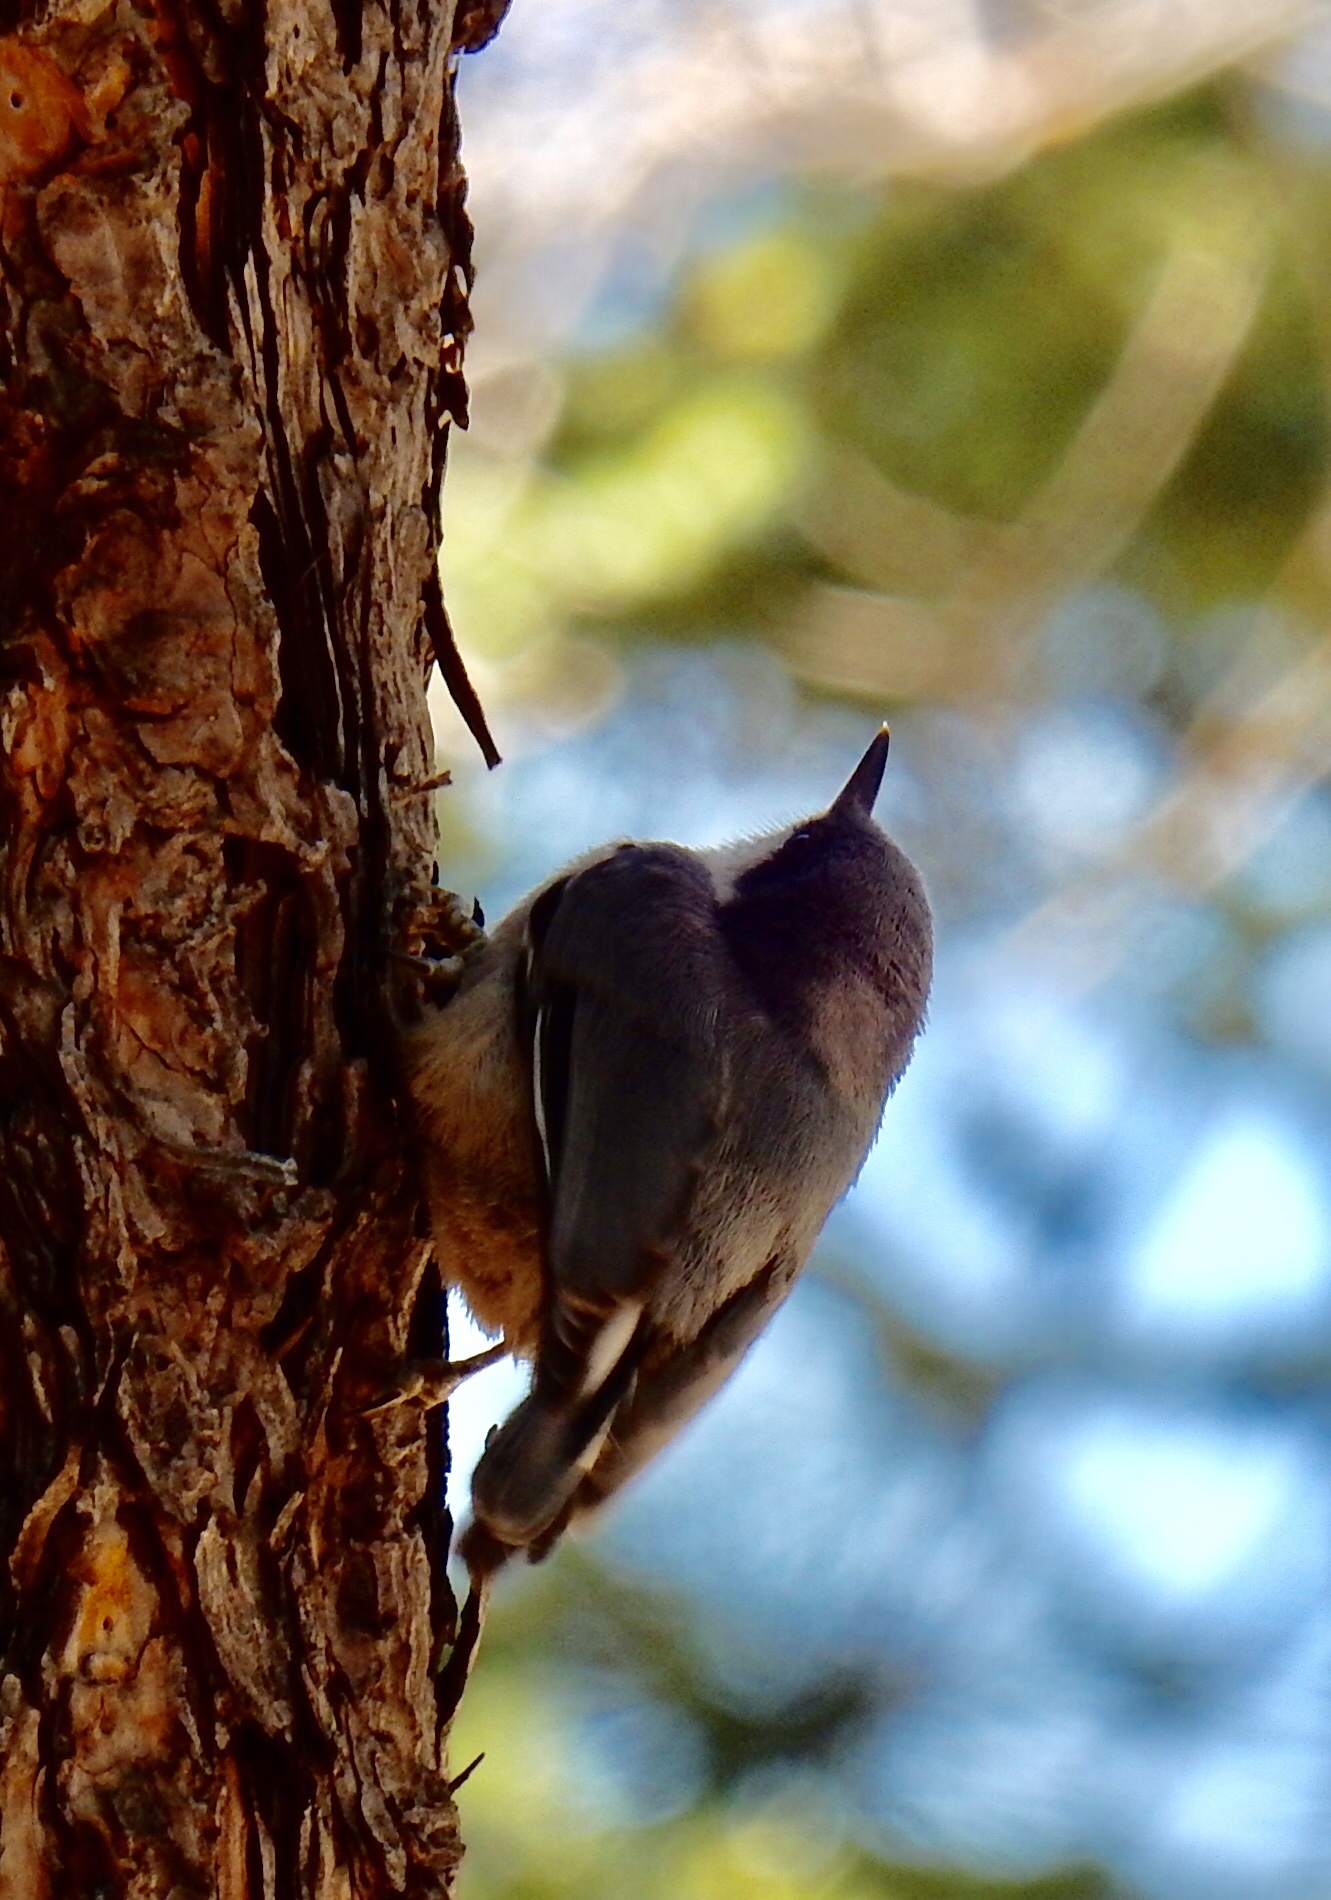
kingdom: Animalia
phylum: Chordata
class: Aves
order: Passeriformes
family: Sittidae
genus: Sitta
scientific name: Sitta pygmaea
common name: Pygmy nuthatch
